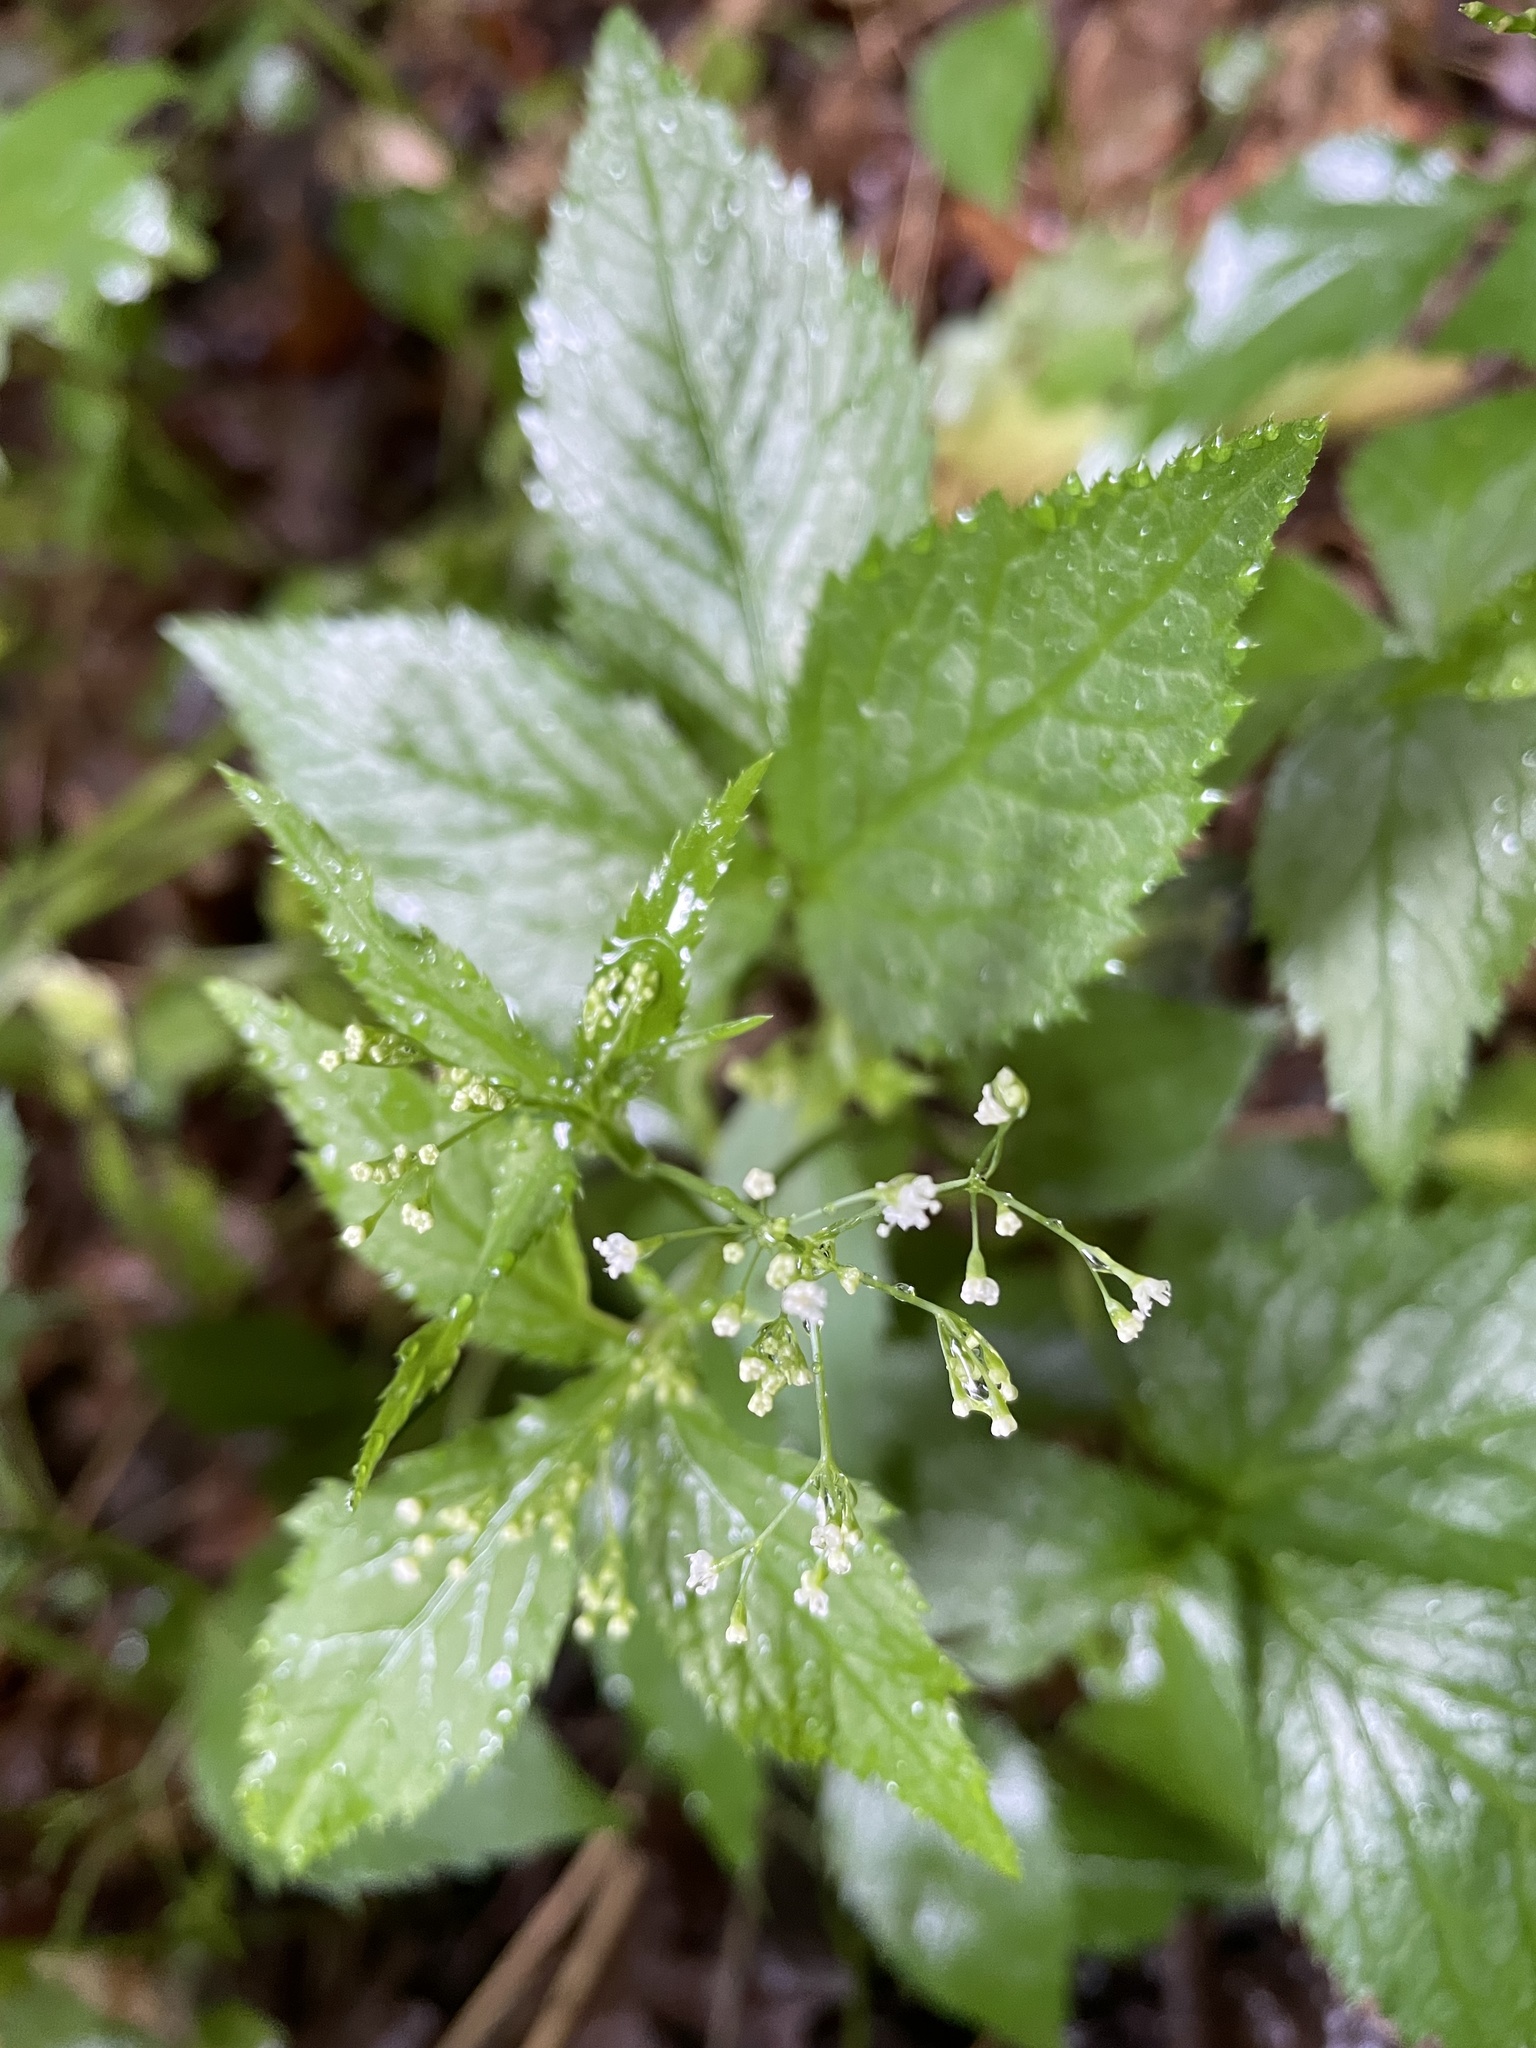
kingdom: Plantae
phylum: Tracheophyta
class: Magnoliopsida
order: Apiales
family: Apiaceae
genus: Cryptotaenia
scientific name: Cryptotaenia canadensis
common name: Honewort
